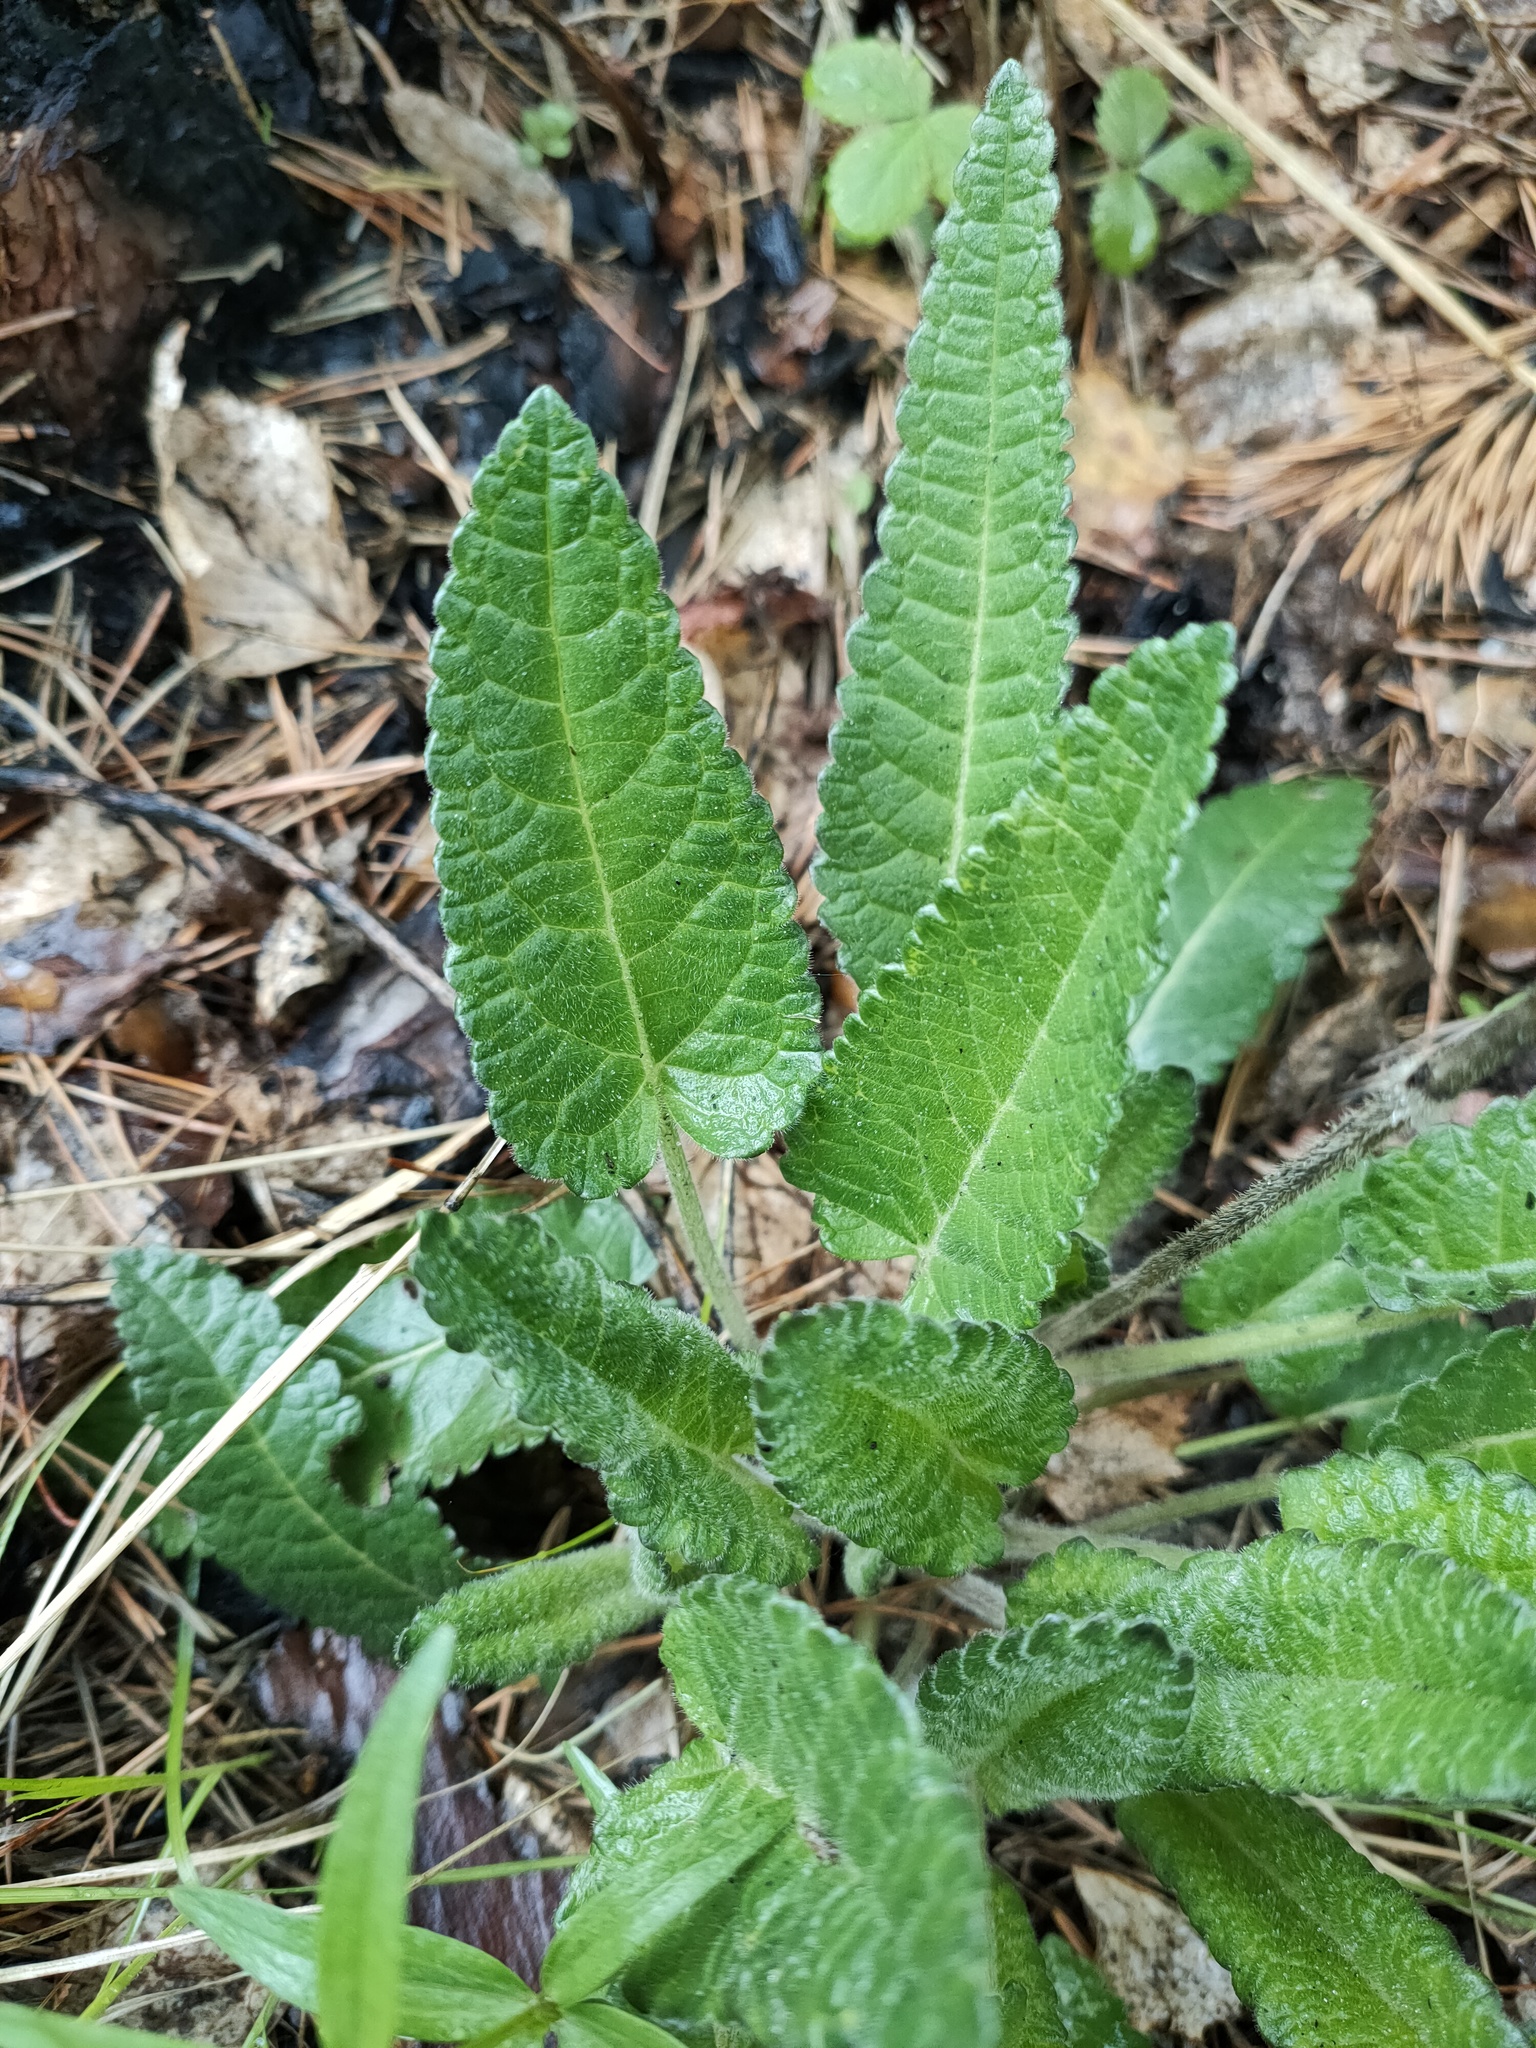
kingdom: Plantae
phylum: Tracheophyta
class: Magnoliopsida
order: Lamiales
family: Lamiaceae
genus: Betonica
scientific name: Betonica officinalis
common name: Bishop's-wort
